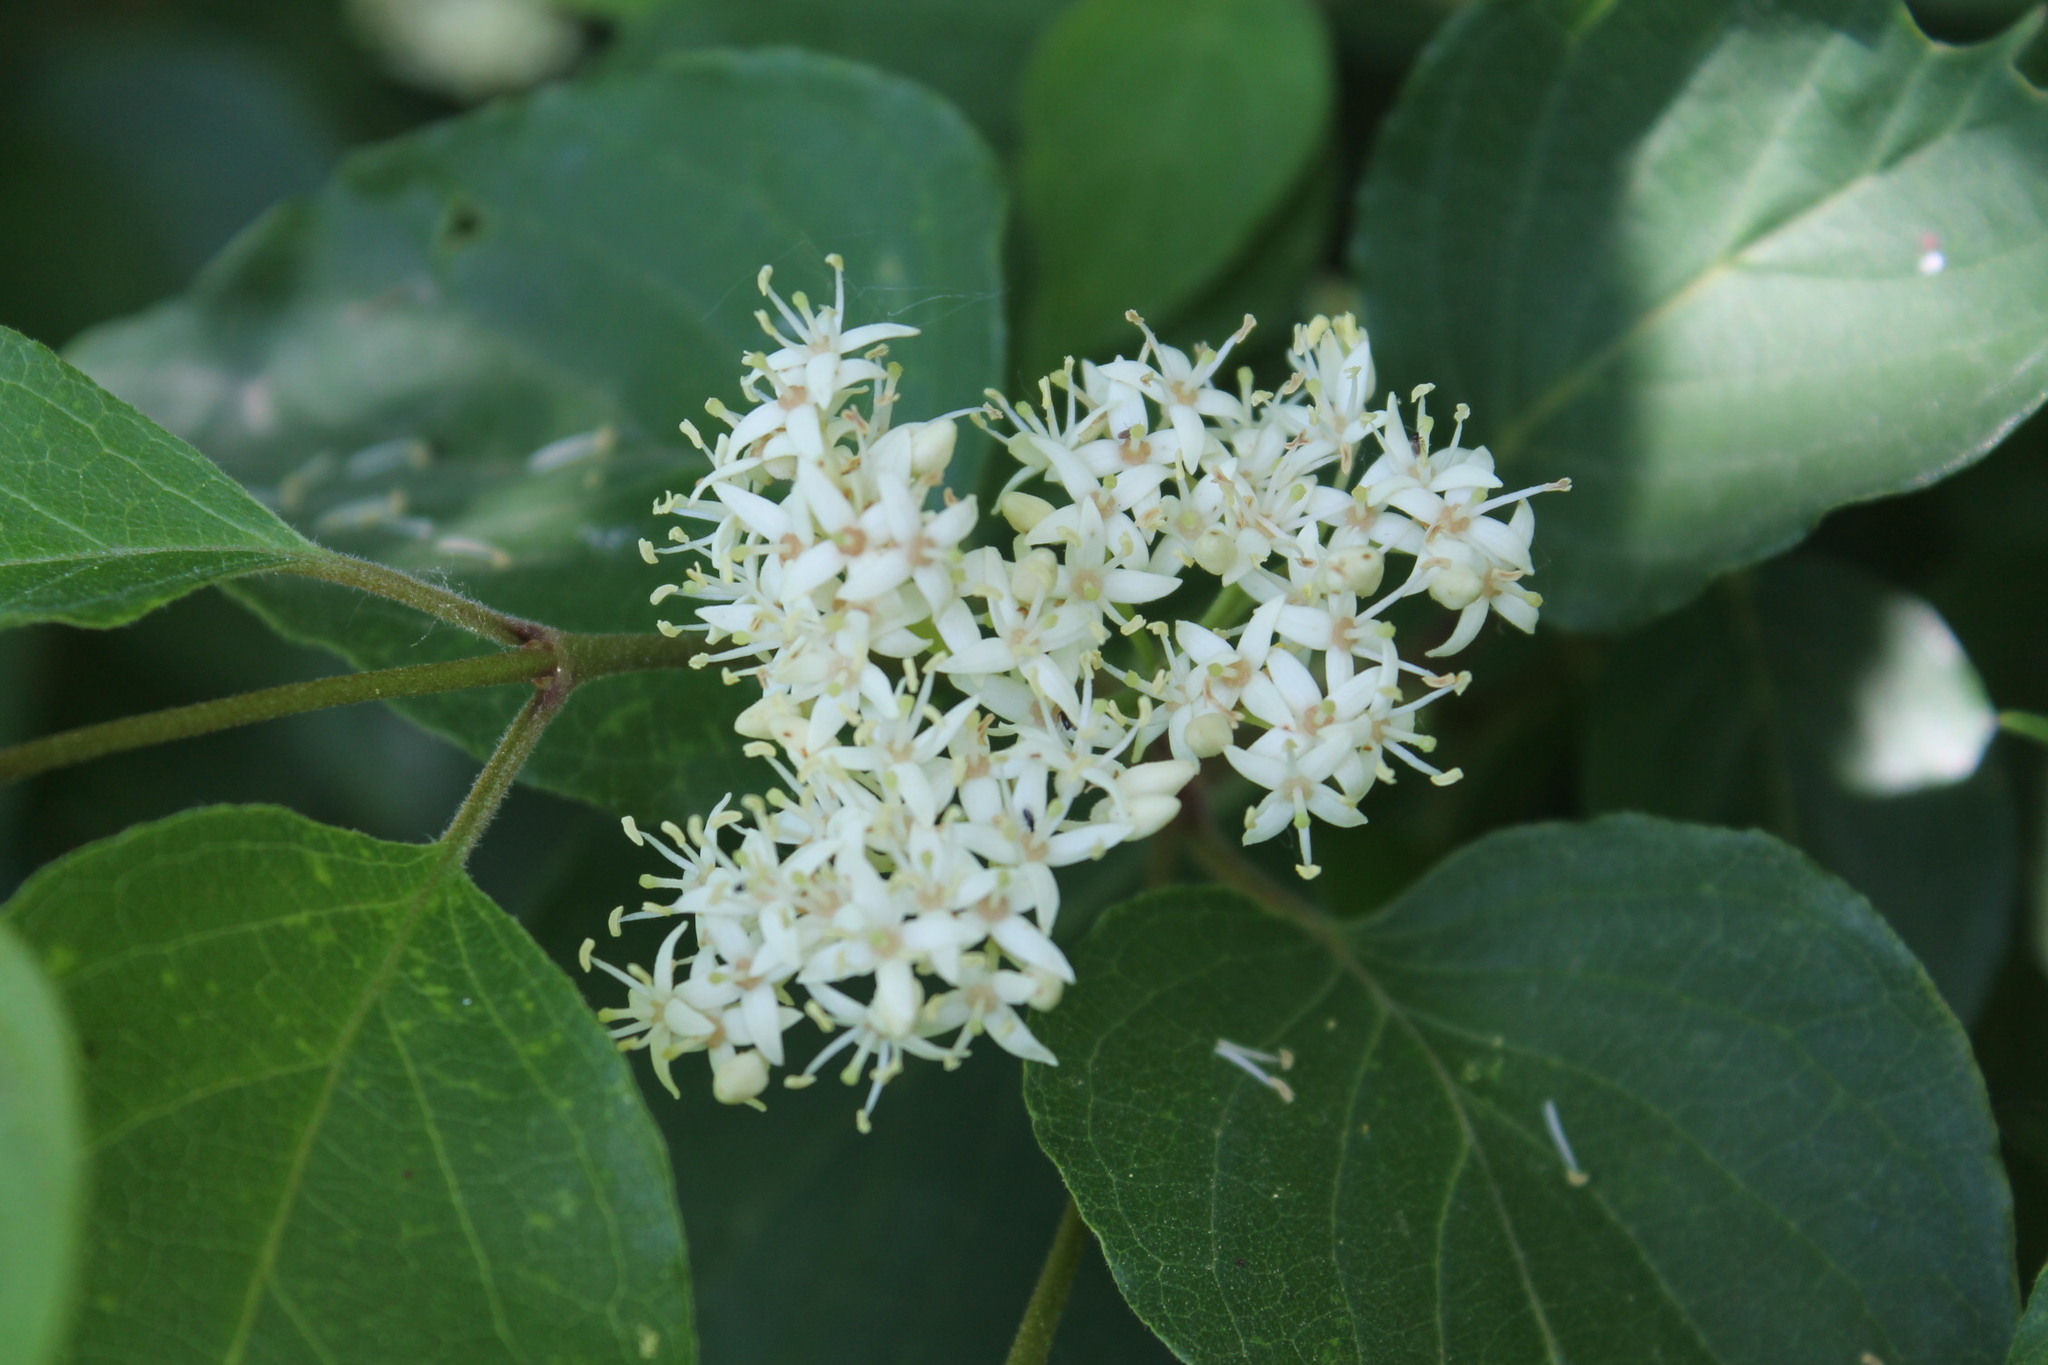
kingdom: Plantae
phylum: Tracheophyta
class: Magnoliopsida
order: Cornales
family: Cornaceae
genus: Cornus
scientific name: Cornus drummondii
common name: Rough-leaf dogwood
